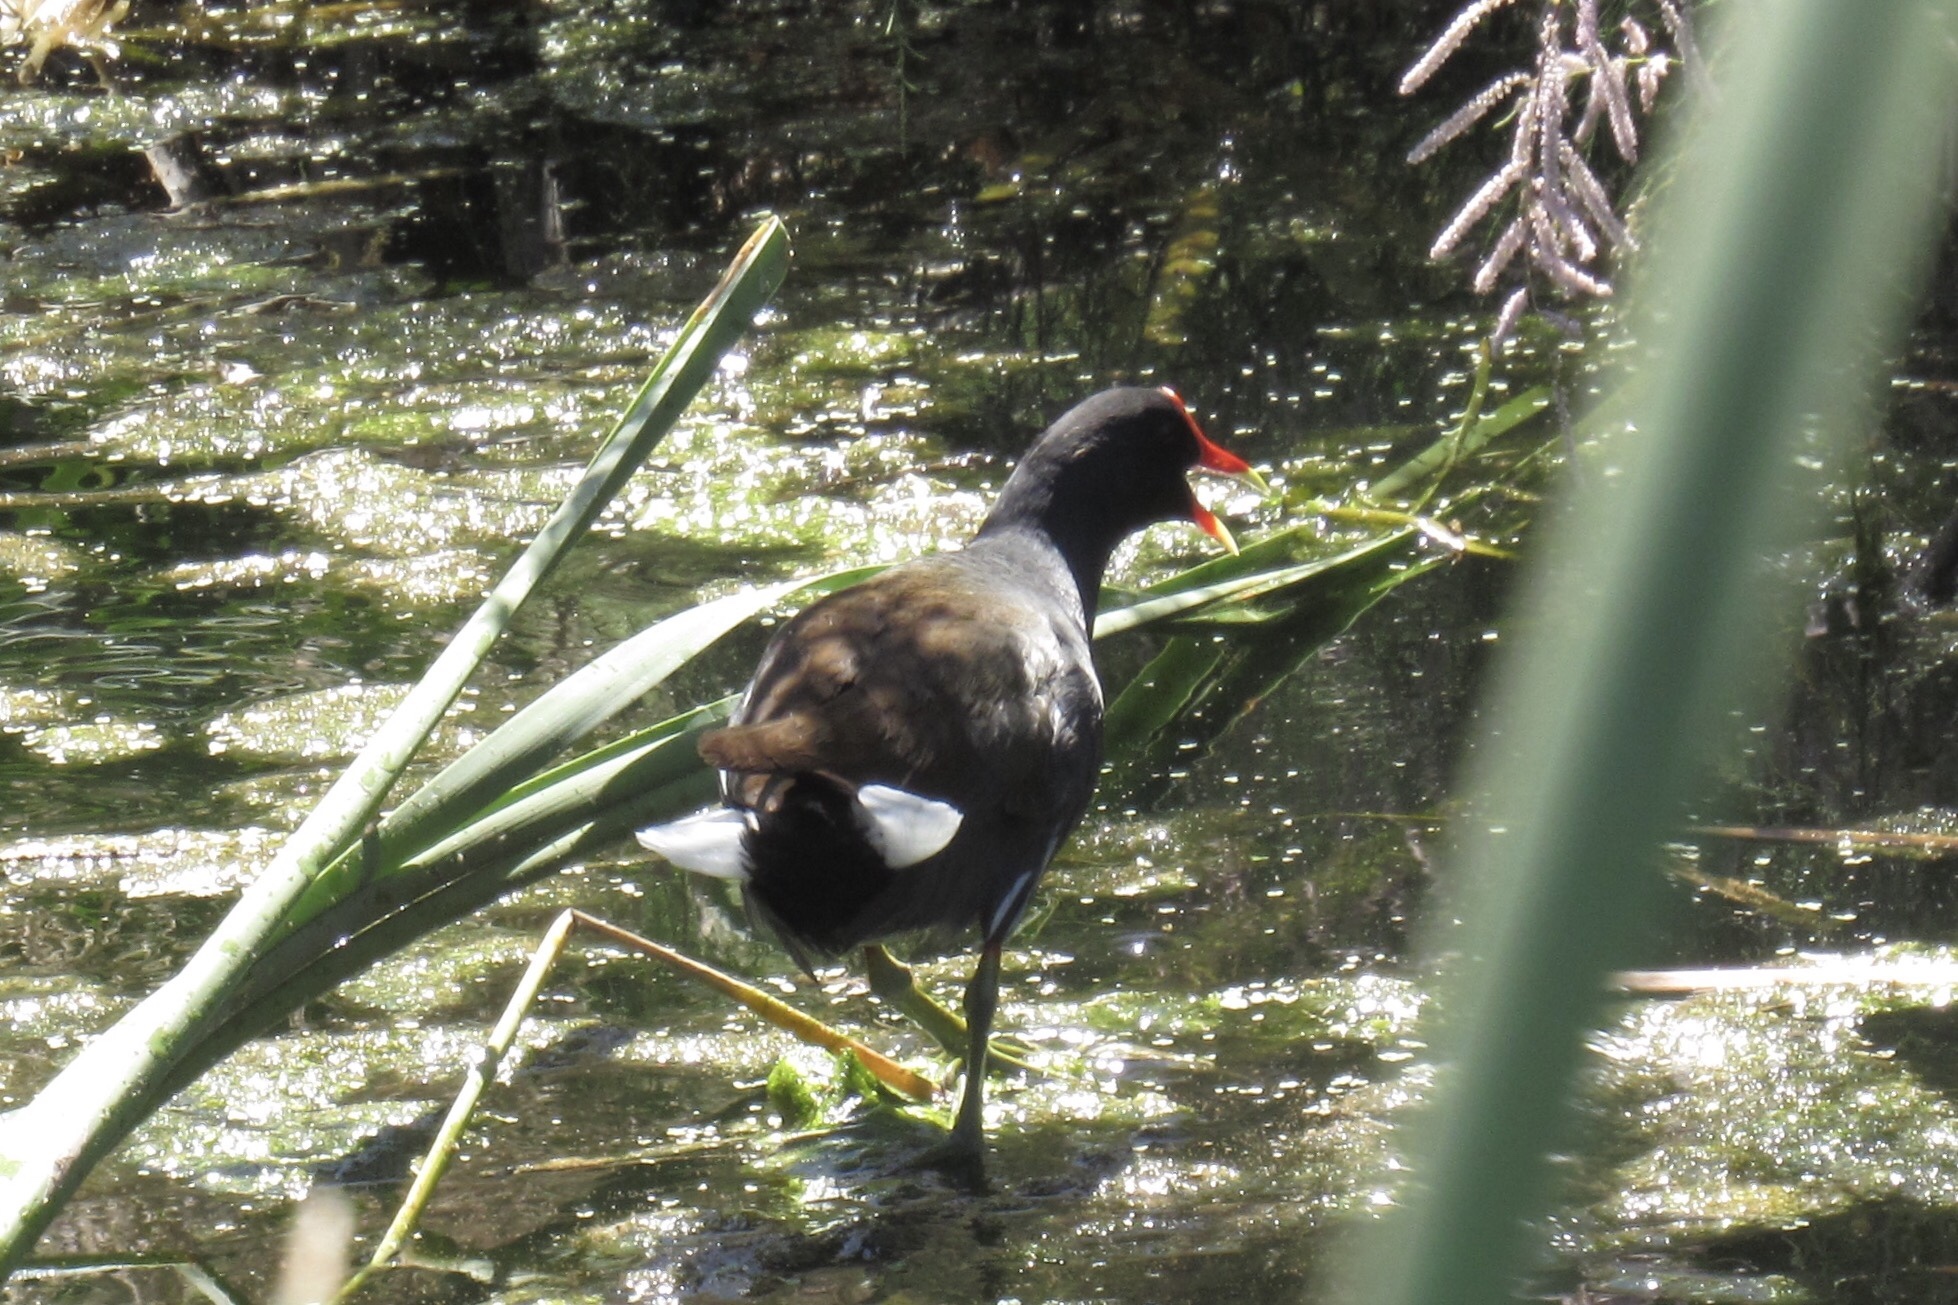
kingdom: Animalia
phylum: Chordata
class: Aves
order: Gruiformes
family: Rallidae
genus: Gallinula
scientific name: Gallinula chloropus
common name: Common moorhen
